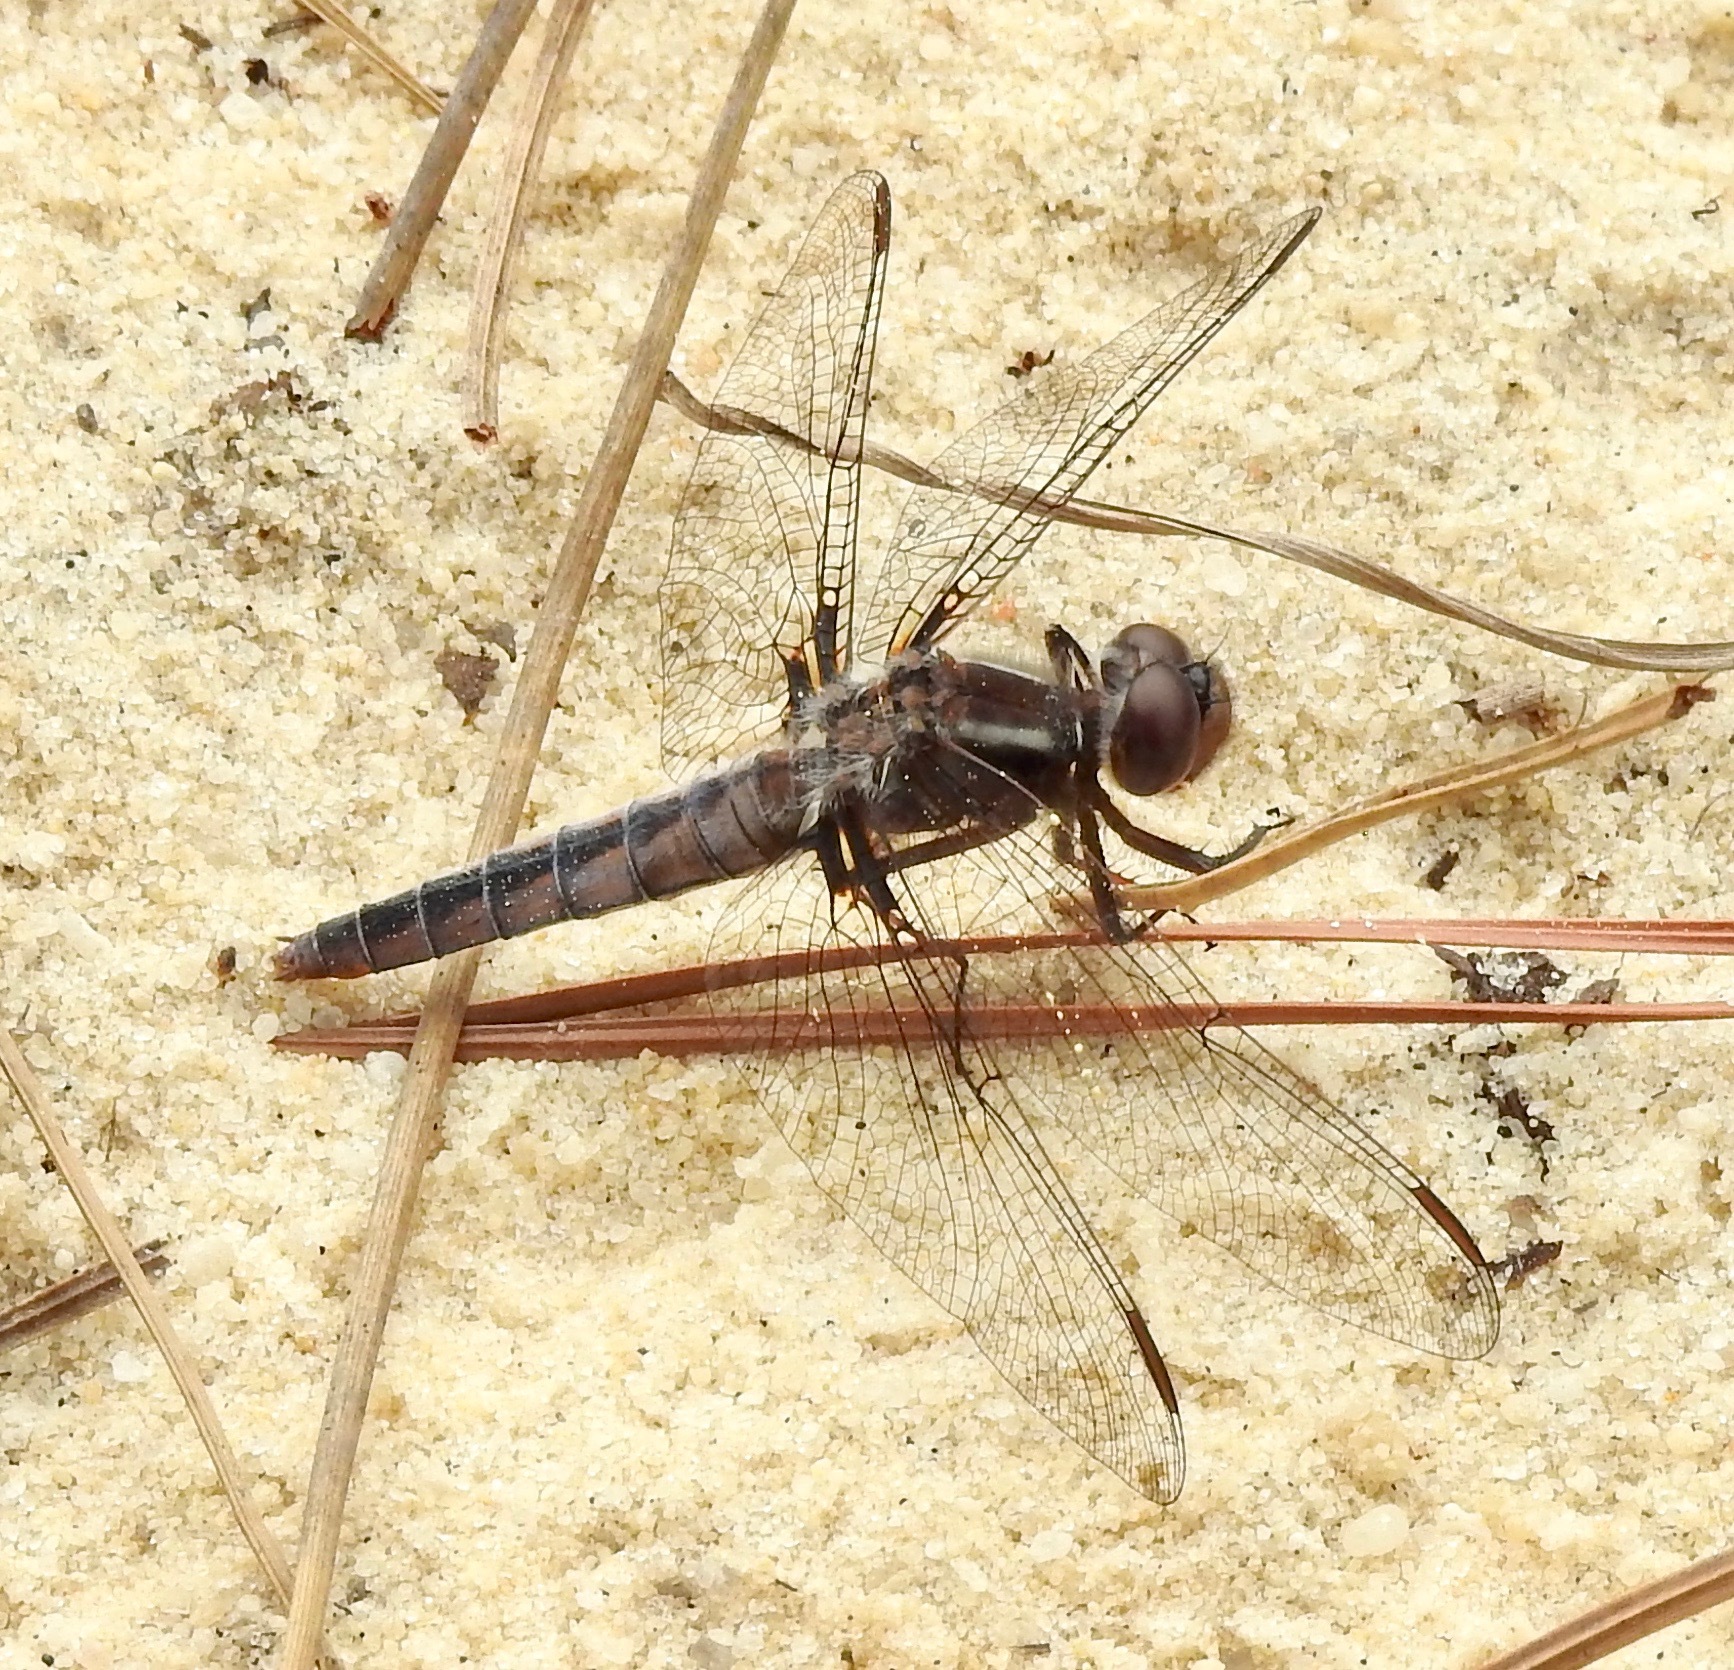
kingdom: Animalia
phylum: Arthropoda
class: Insecta
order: Odonata
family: Libellulidae
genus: Ladona
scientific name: Ladona deplanata
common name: Blue corporal
